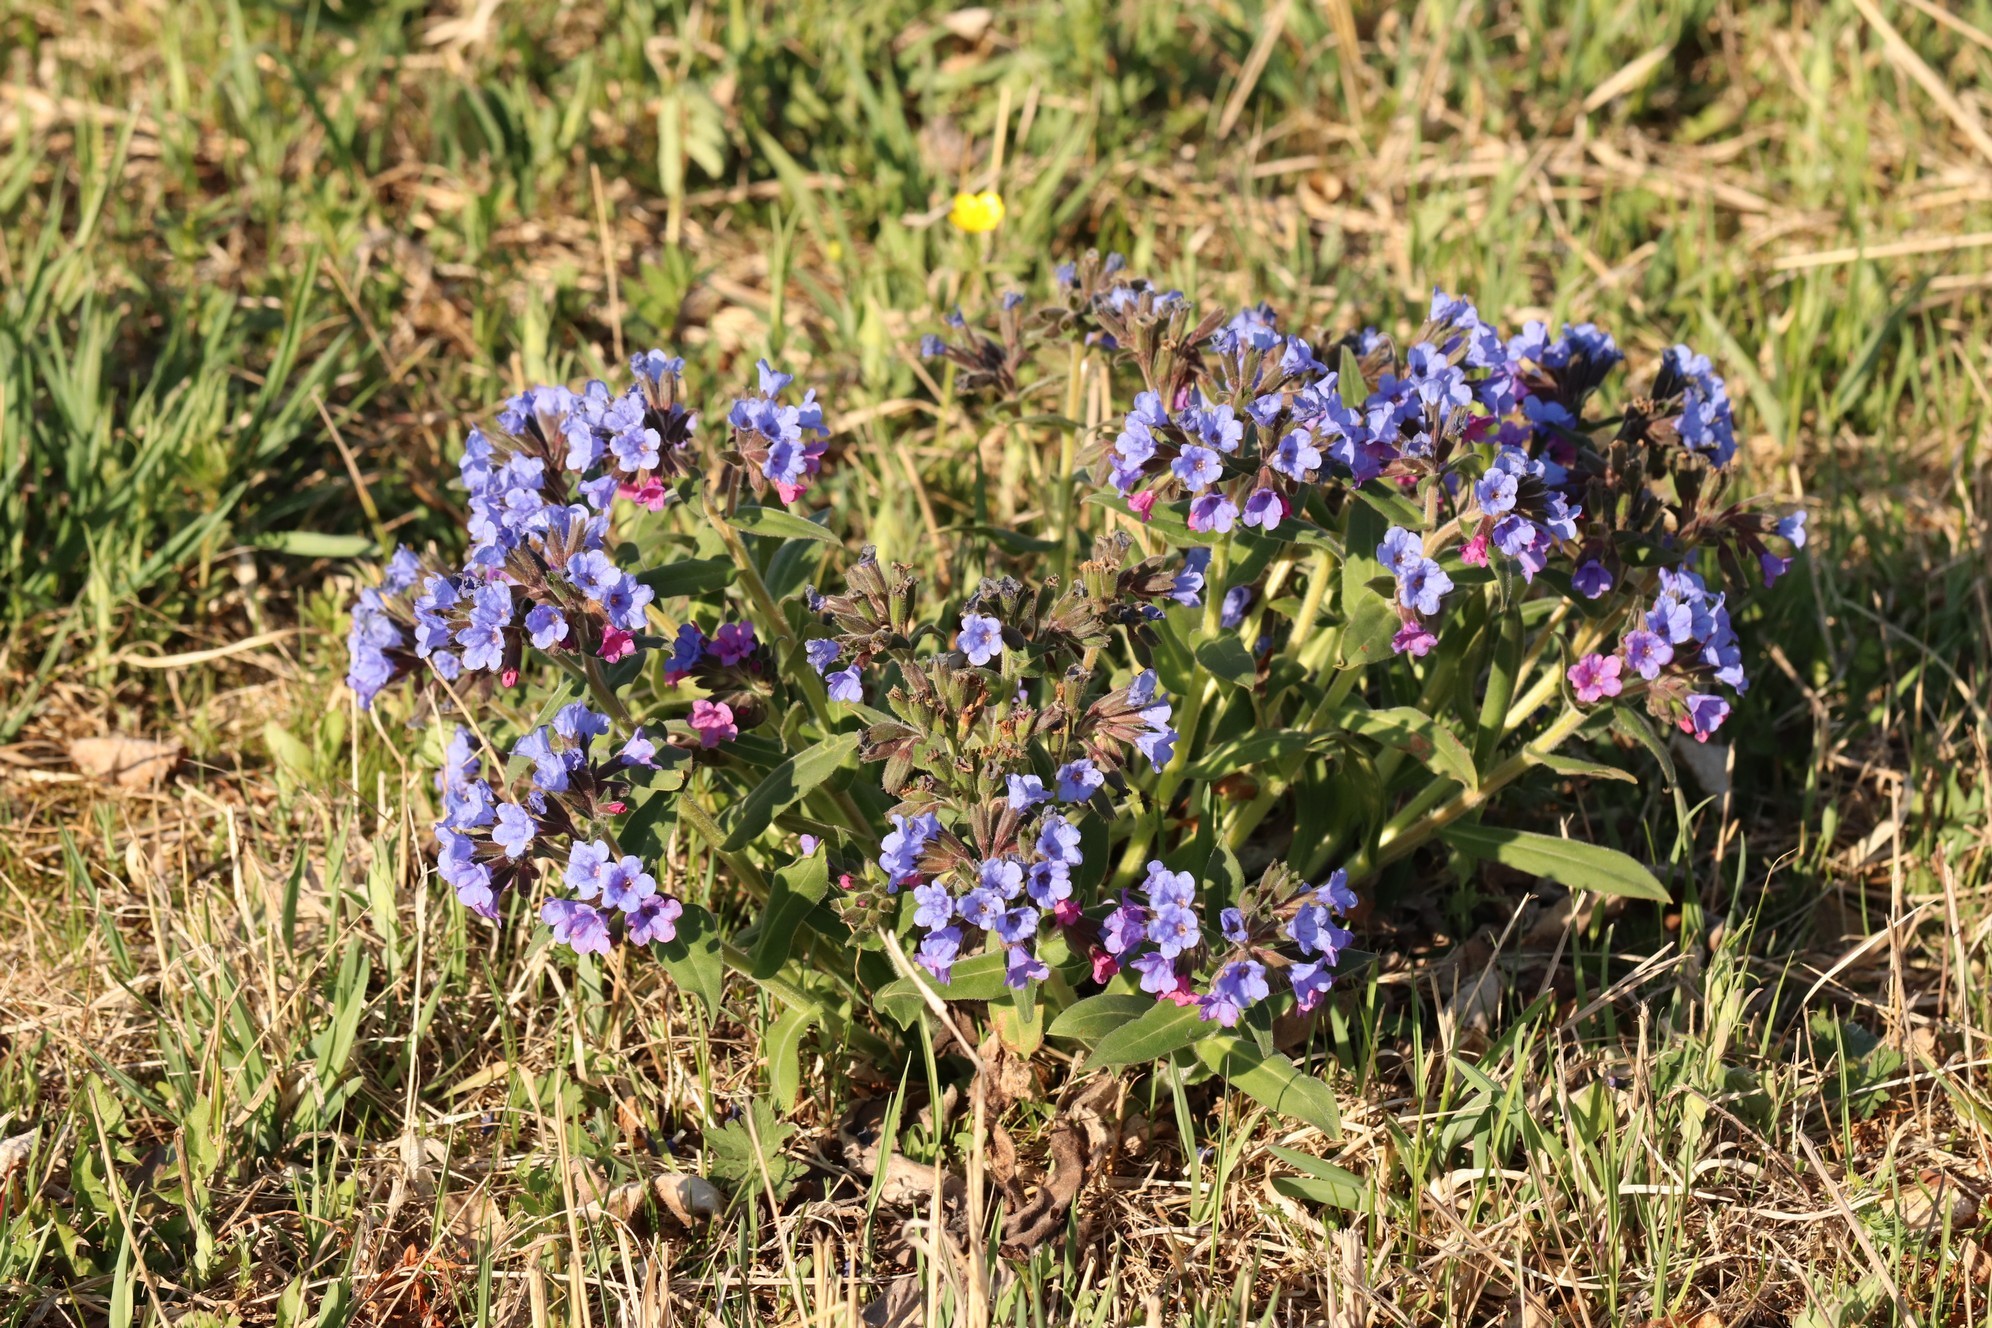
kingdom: Plantae
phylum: Tracheophyta
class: Magnoliopsida
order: Boraginales
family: Boraginaceae
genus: Pulmonaria
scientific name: Pulmonaria mollis
